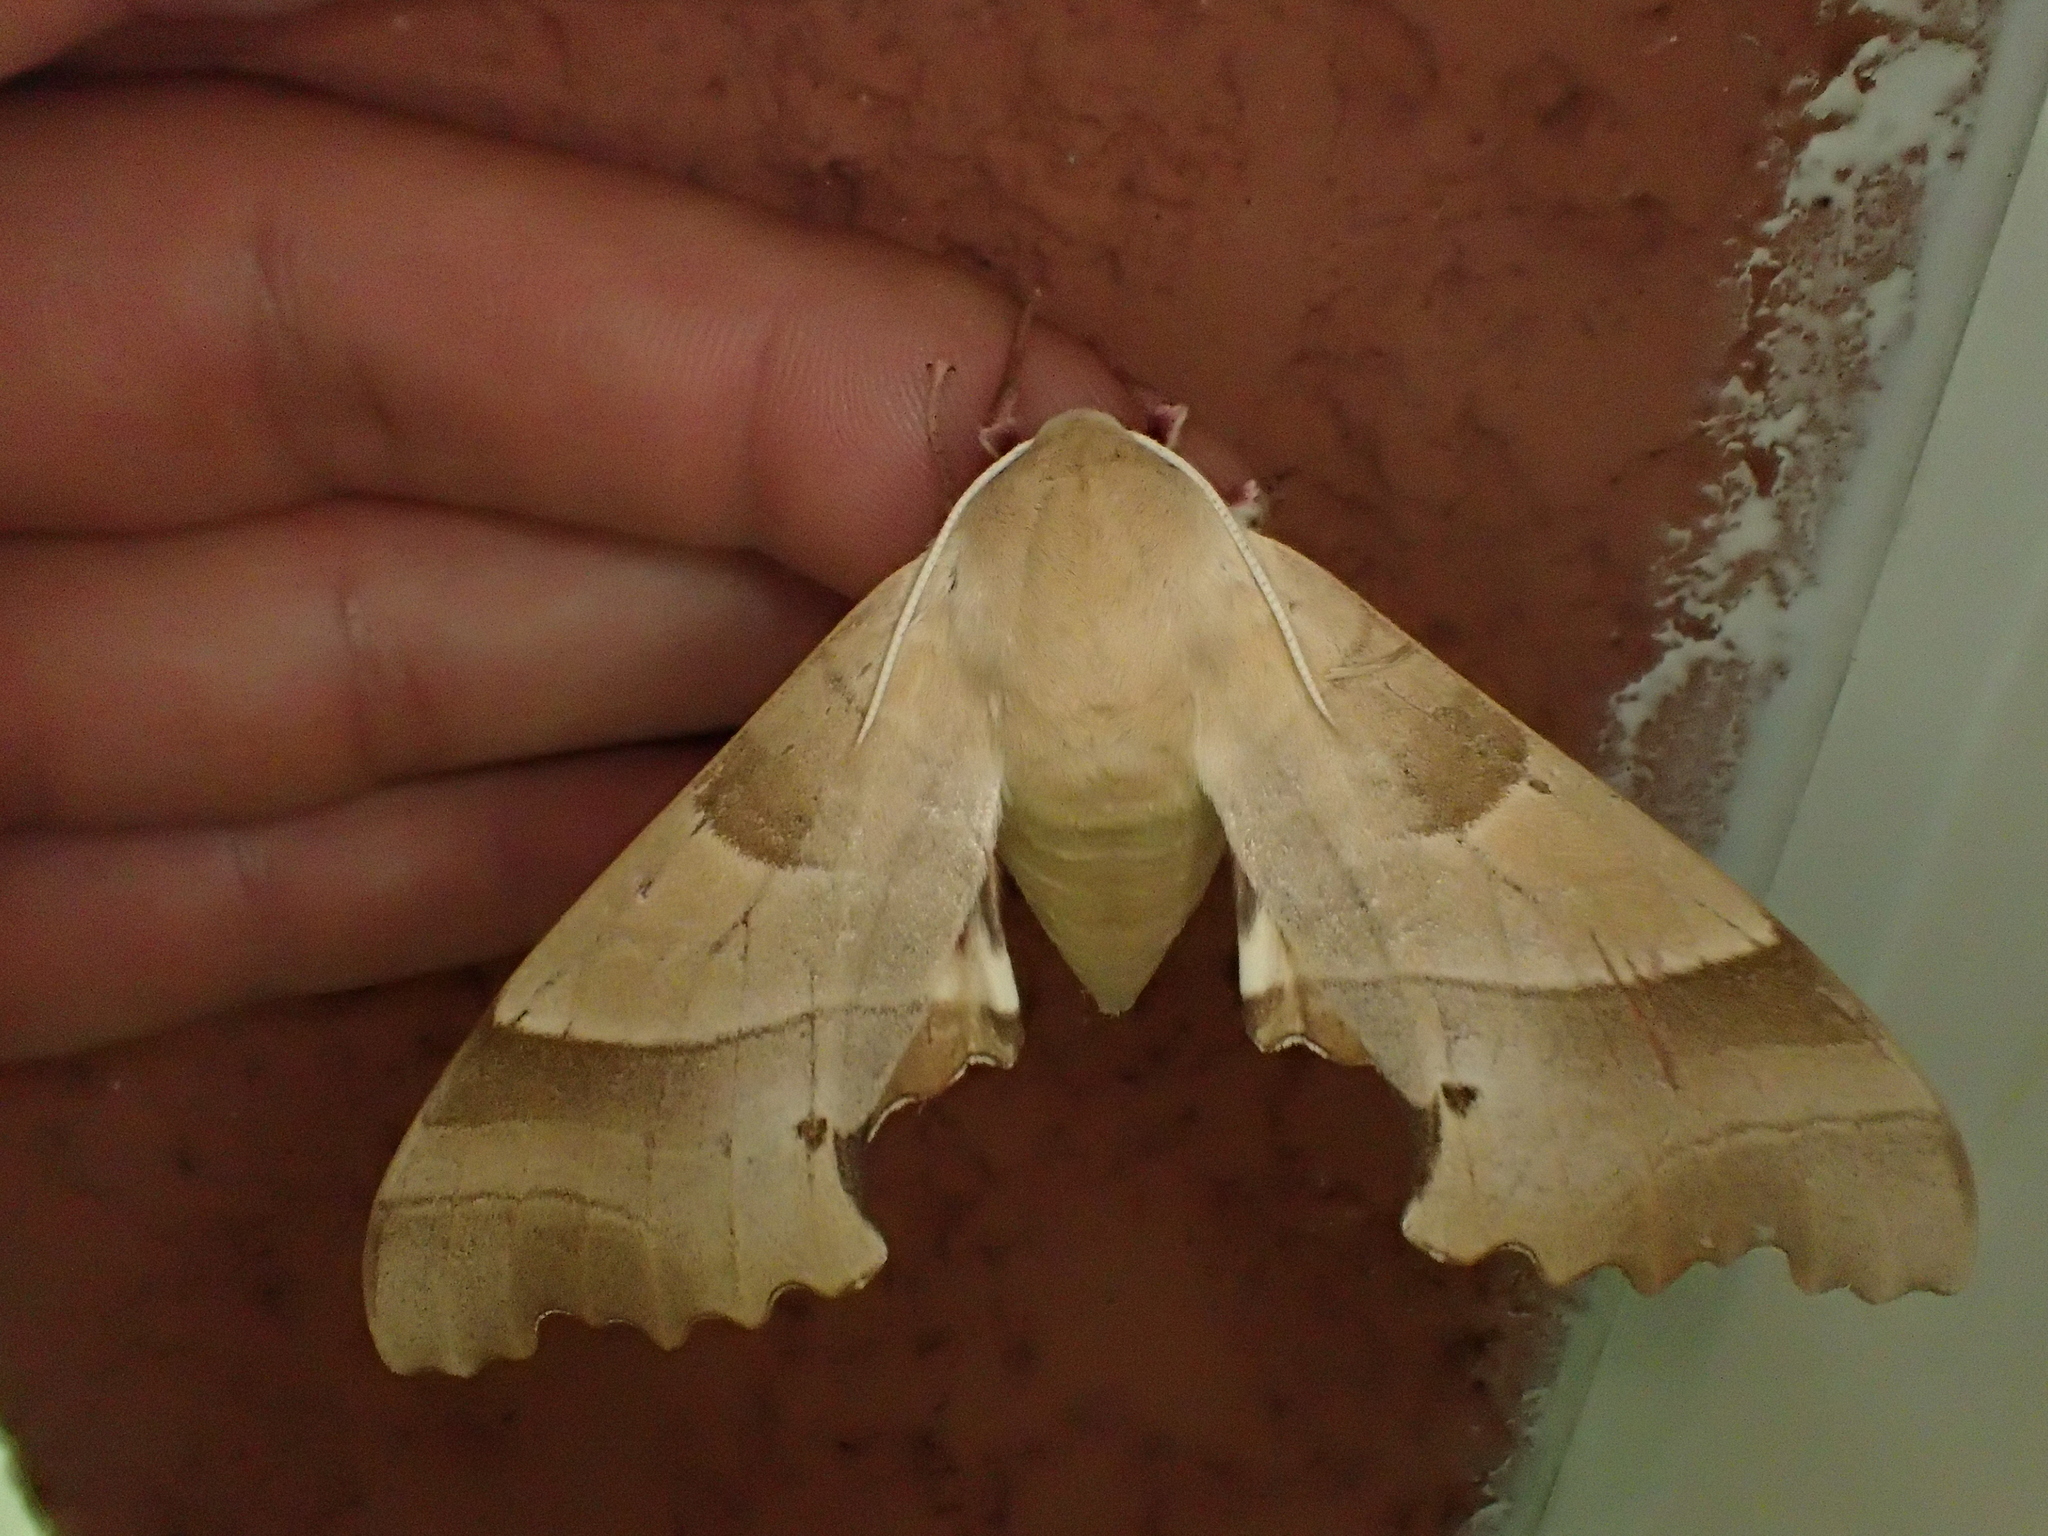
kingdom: Animalia
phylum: Arthropoda
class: Insecta
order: Lepidoptera
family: Sphingidae
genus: Marumba
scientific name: Marumba quercus
